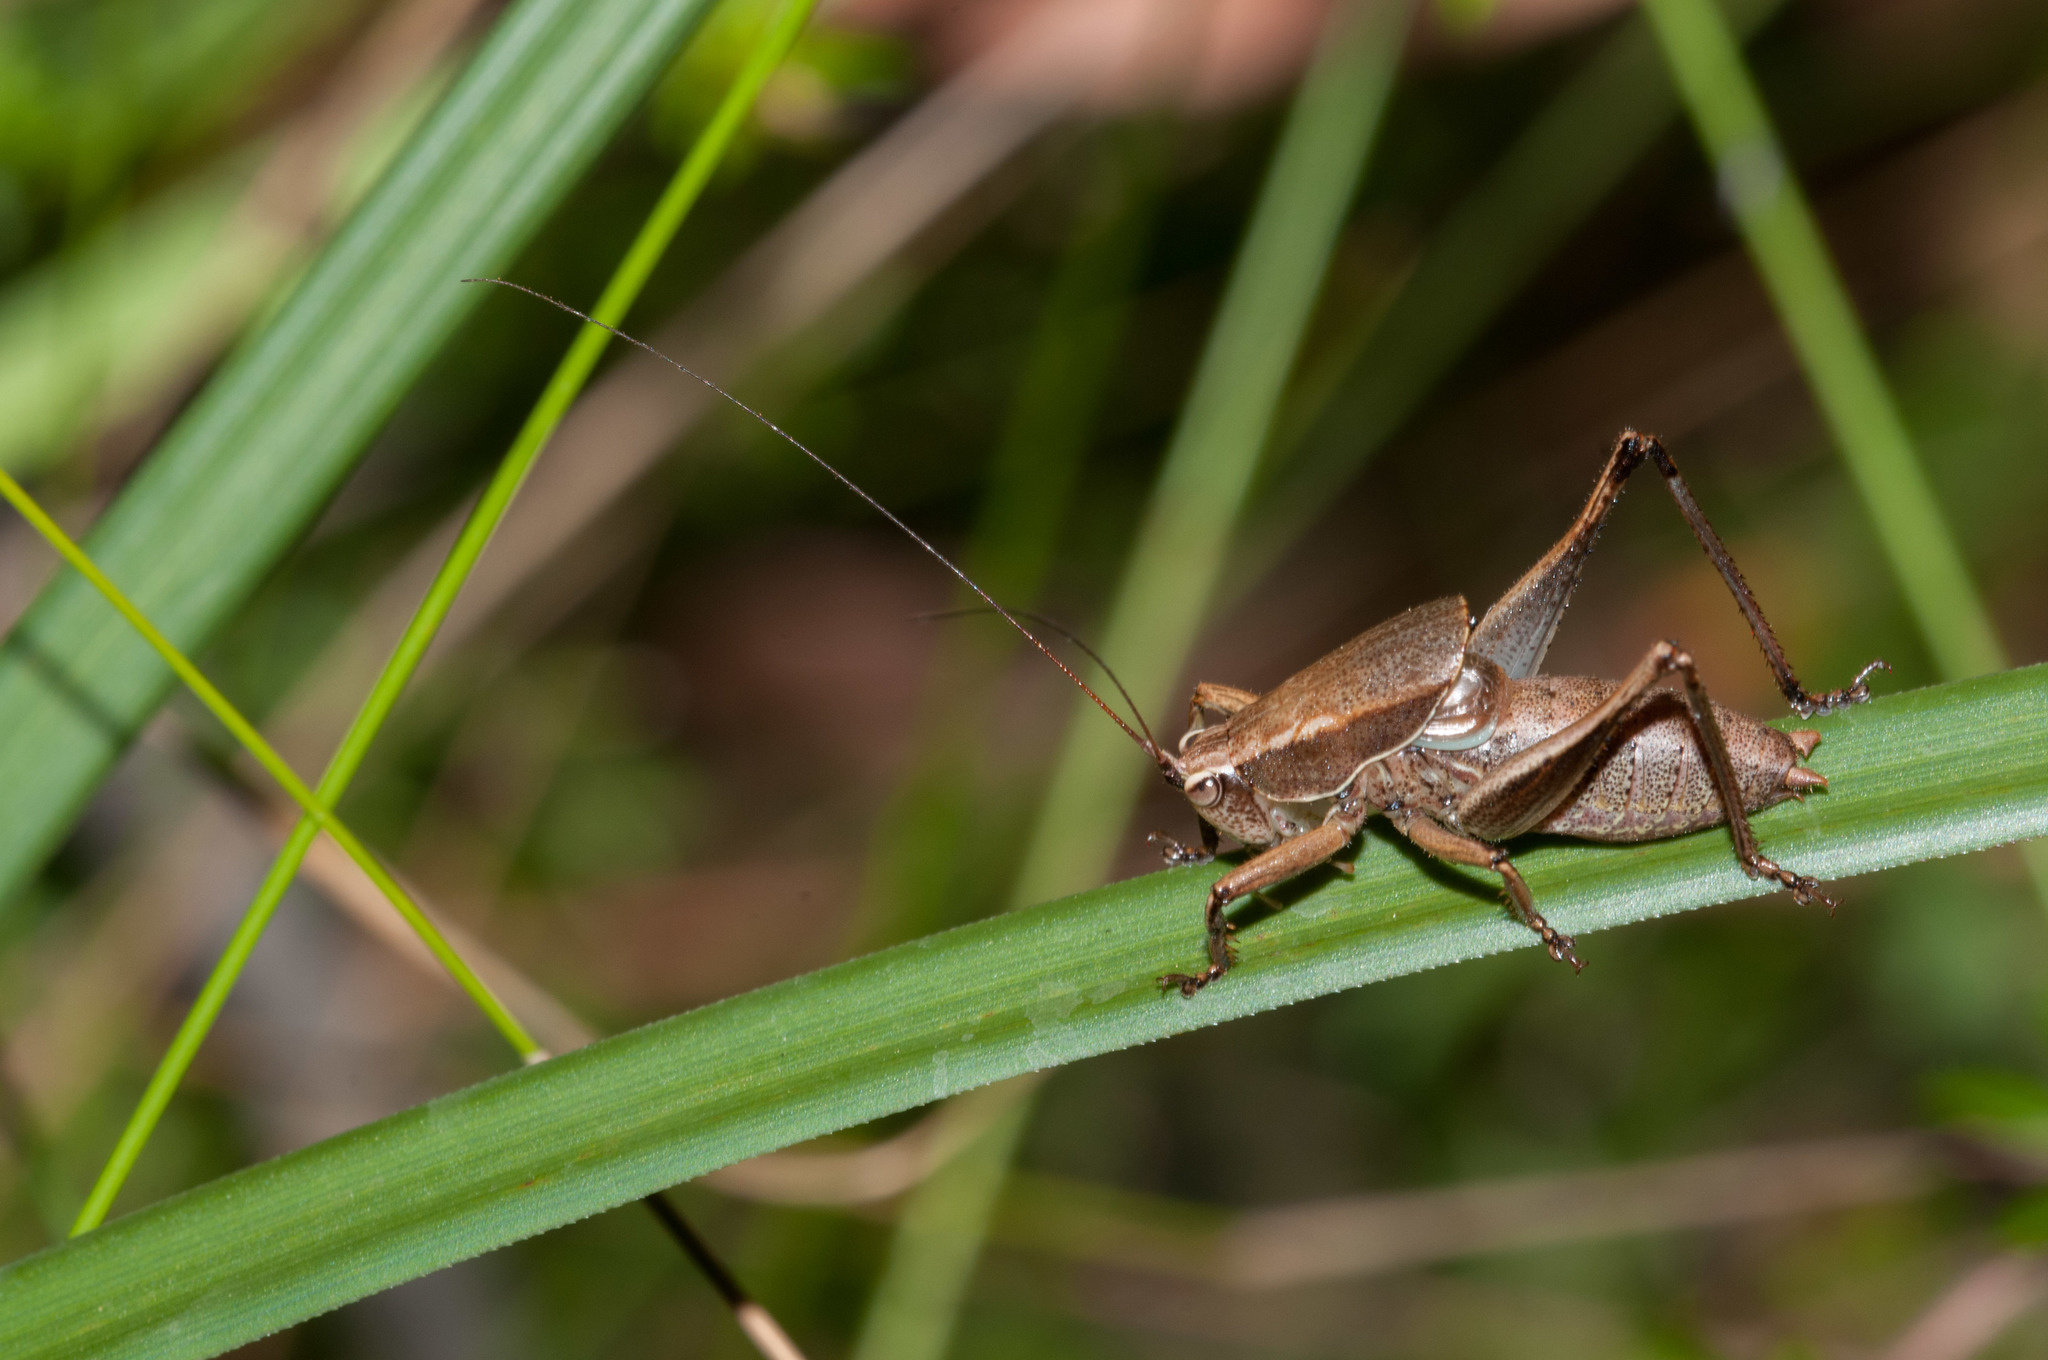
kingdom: Animalia
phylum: Arthropoda
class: Insecta
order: Orthoptera
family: Tettigoniidae
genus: Requena
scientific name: Requena baraya
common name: Common eastern requena
